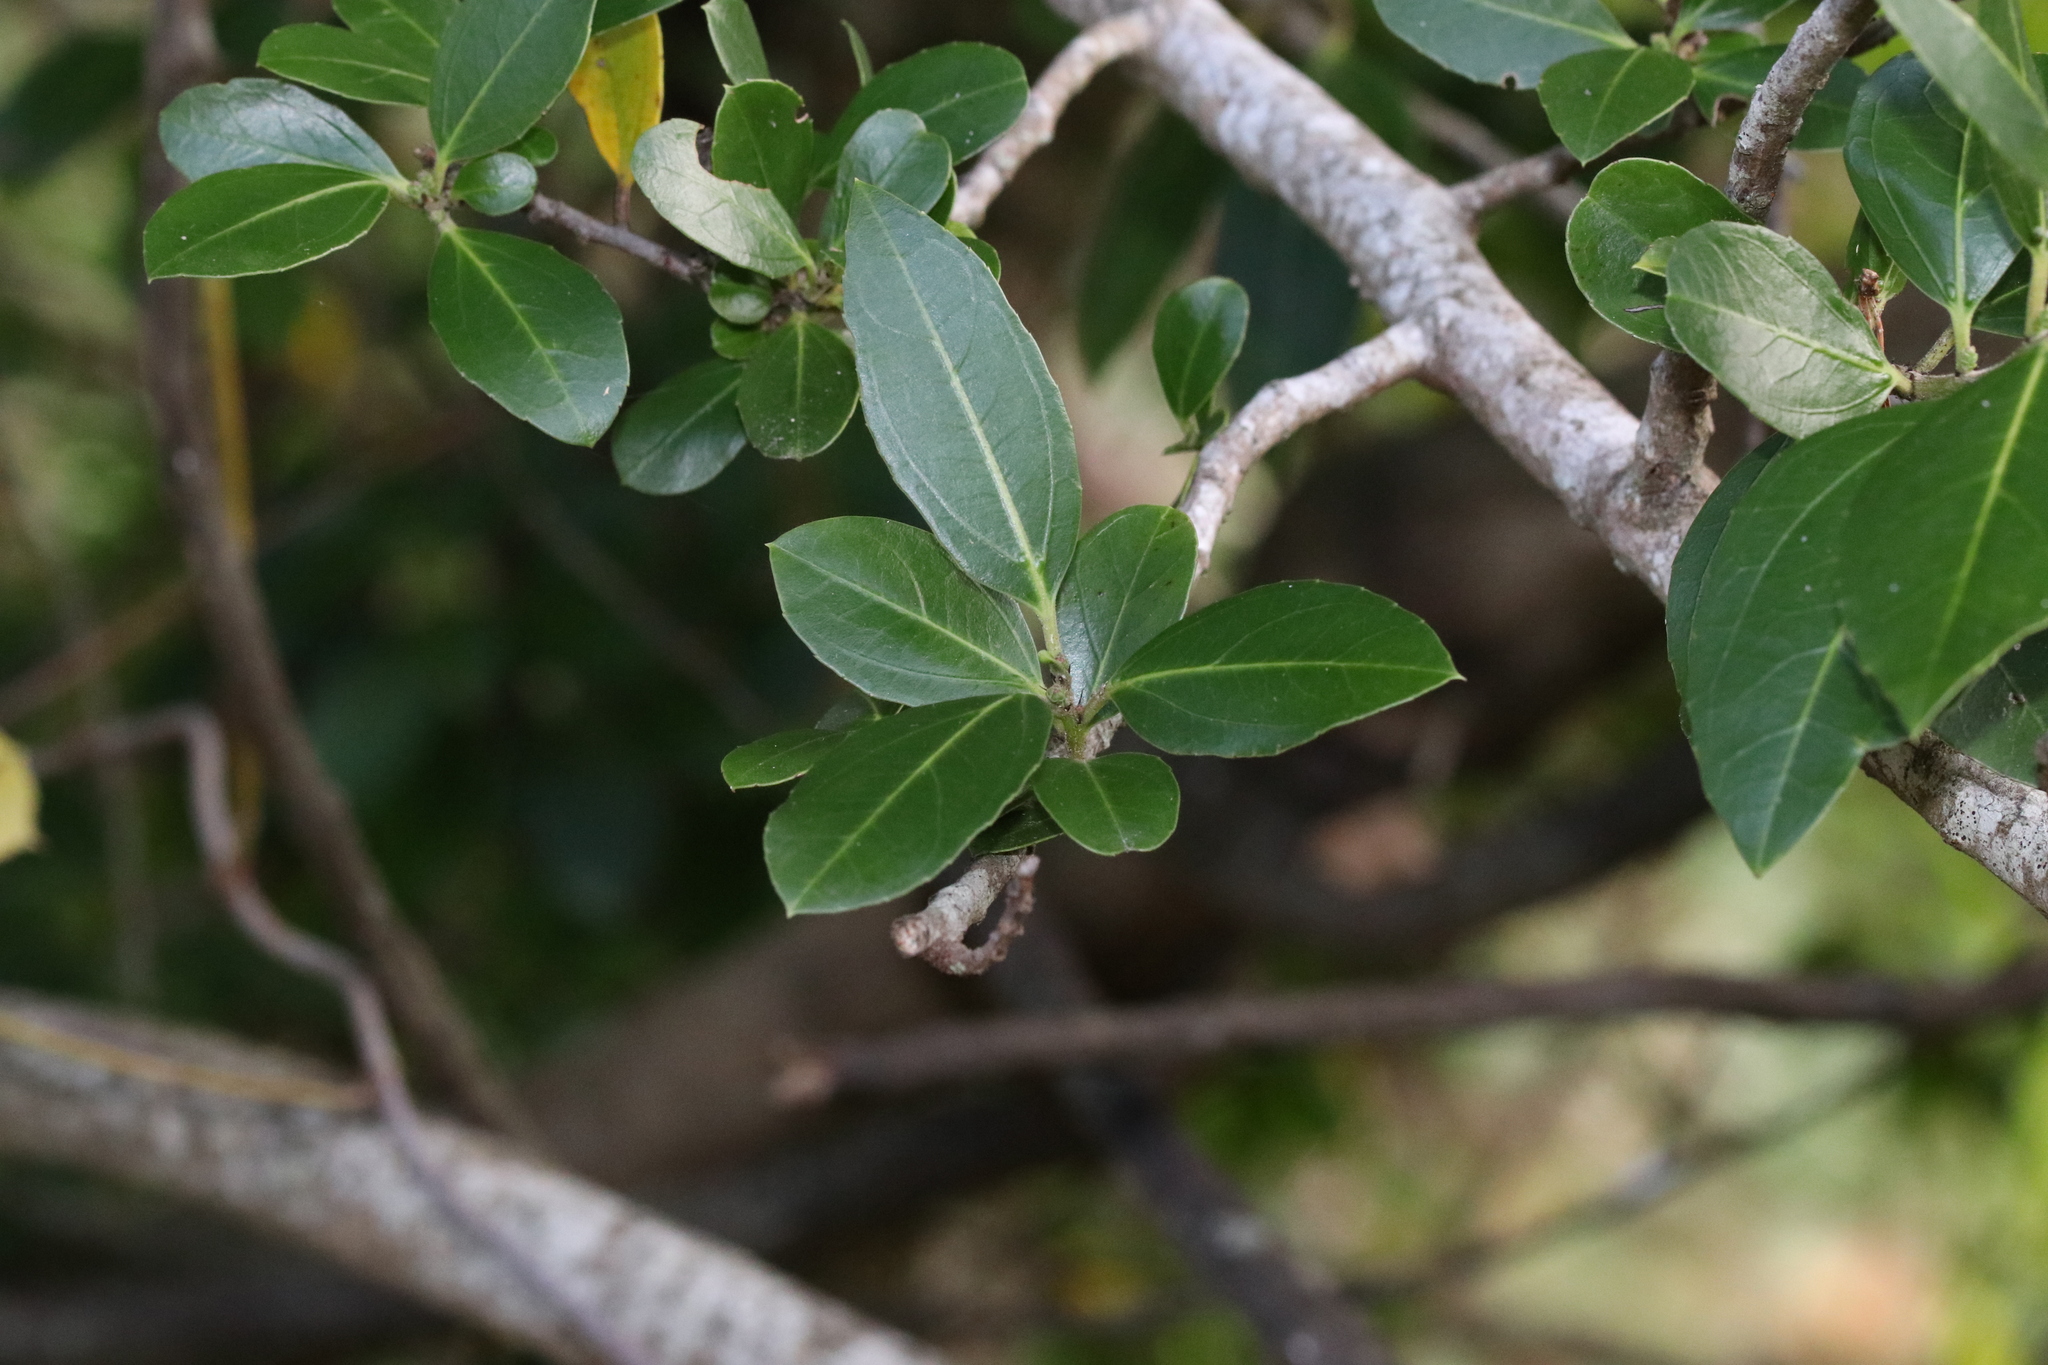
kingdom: Plantae
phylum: Tracheophyta
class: Magnoliopsida
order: Rosales
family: Rhamnaceae
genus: Rhamnus
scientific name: Rhamnus alaternus
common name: Mediterranean buckthorn
